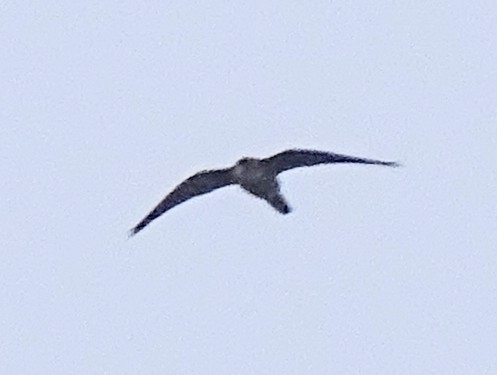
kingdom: Animalia
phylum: Chordata
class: Aves
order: Falconiformes
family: Falconidae
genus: Falco
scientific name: Falco subbuteo
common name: Eurasian hobby
